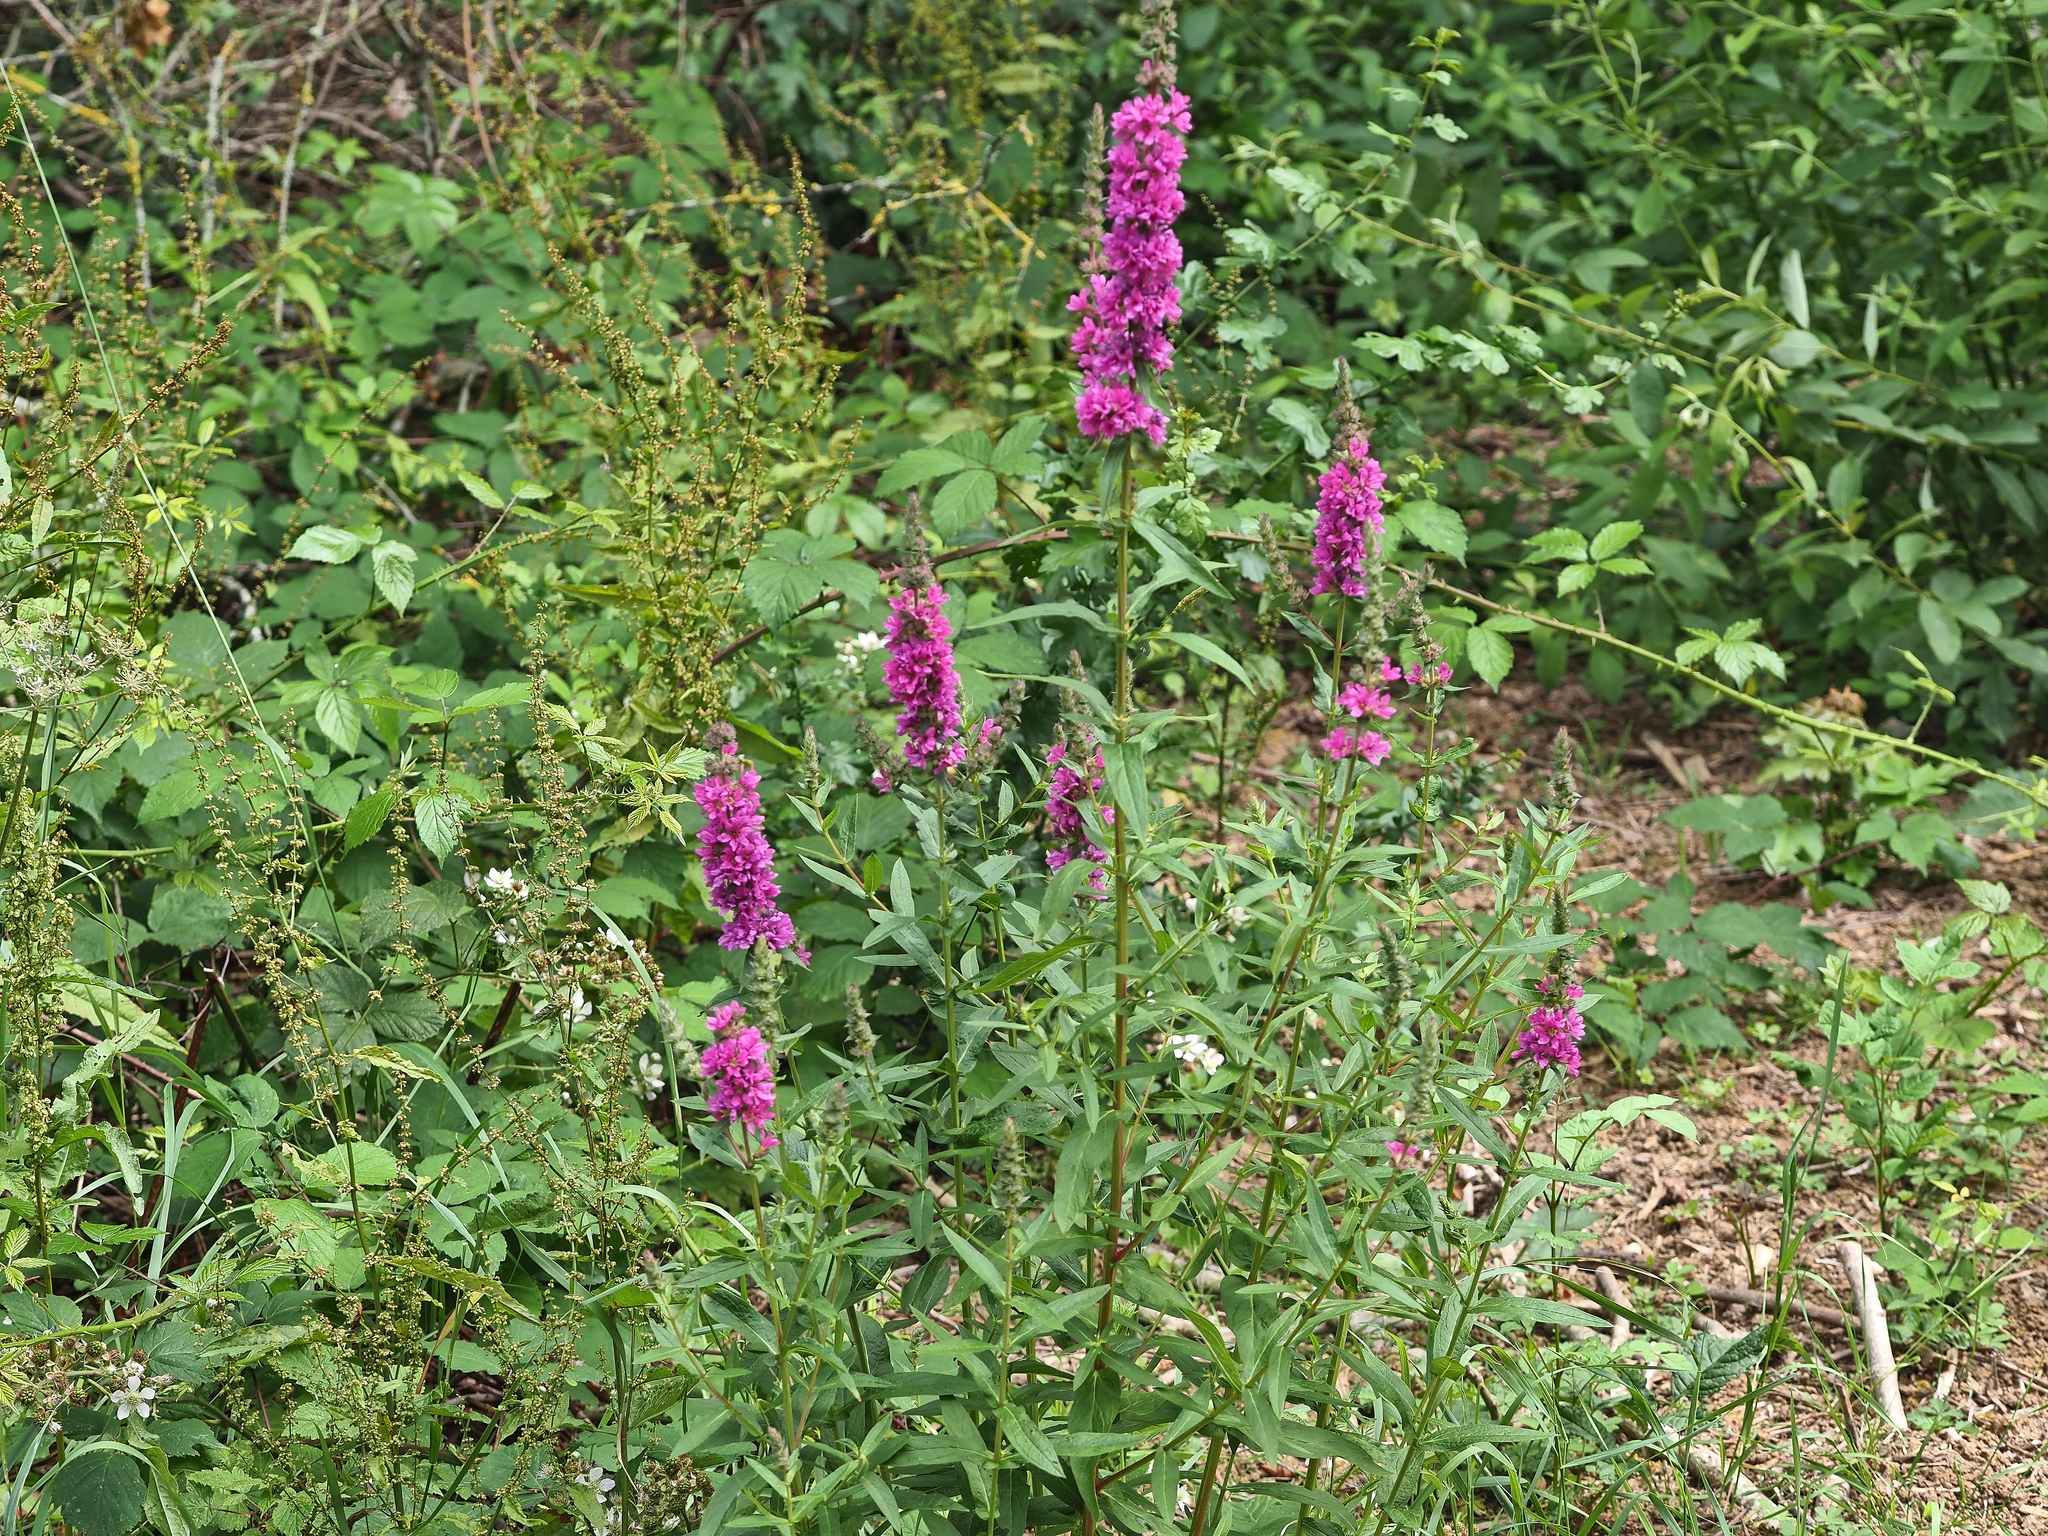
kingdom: Plantae
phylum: Tracheophyta
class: Magnoliopsida
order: Myrtales
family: Lythraceae
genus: Lythrum
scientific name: Lythrum salicaria
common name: Purple loosestrife
